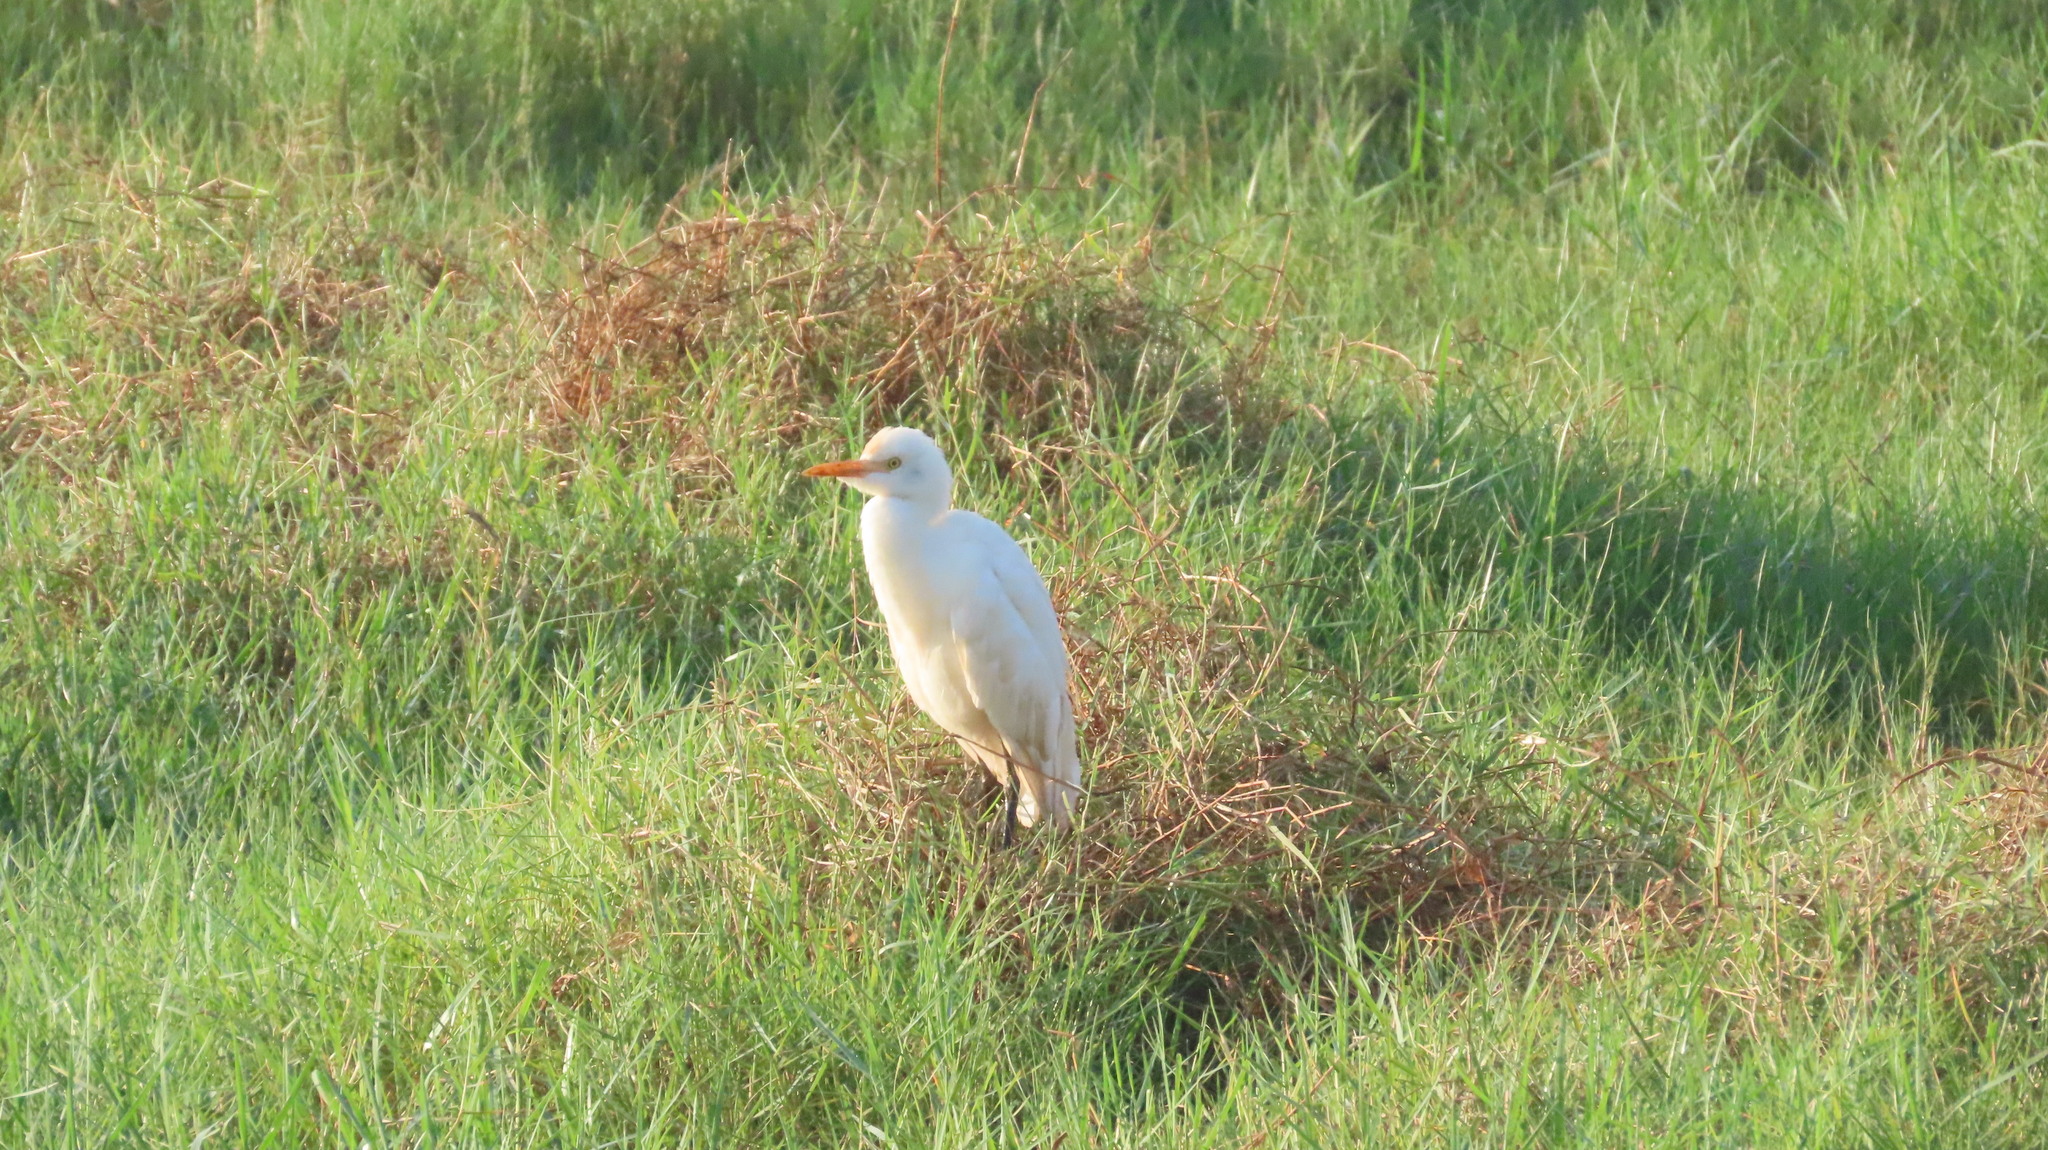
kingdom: Animalia
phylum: Chordata
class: Aves
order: Pelecaniformes
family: Ardeidae
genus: Bubulcus
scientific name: Bubulcus coromandus
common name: Eastern cattle egret
